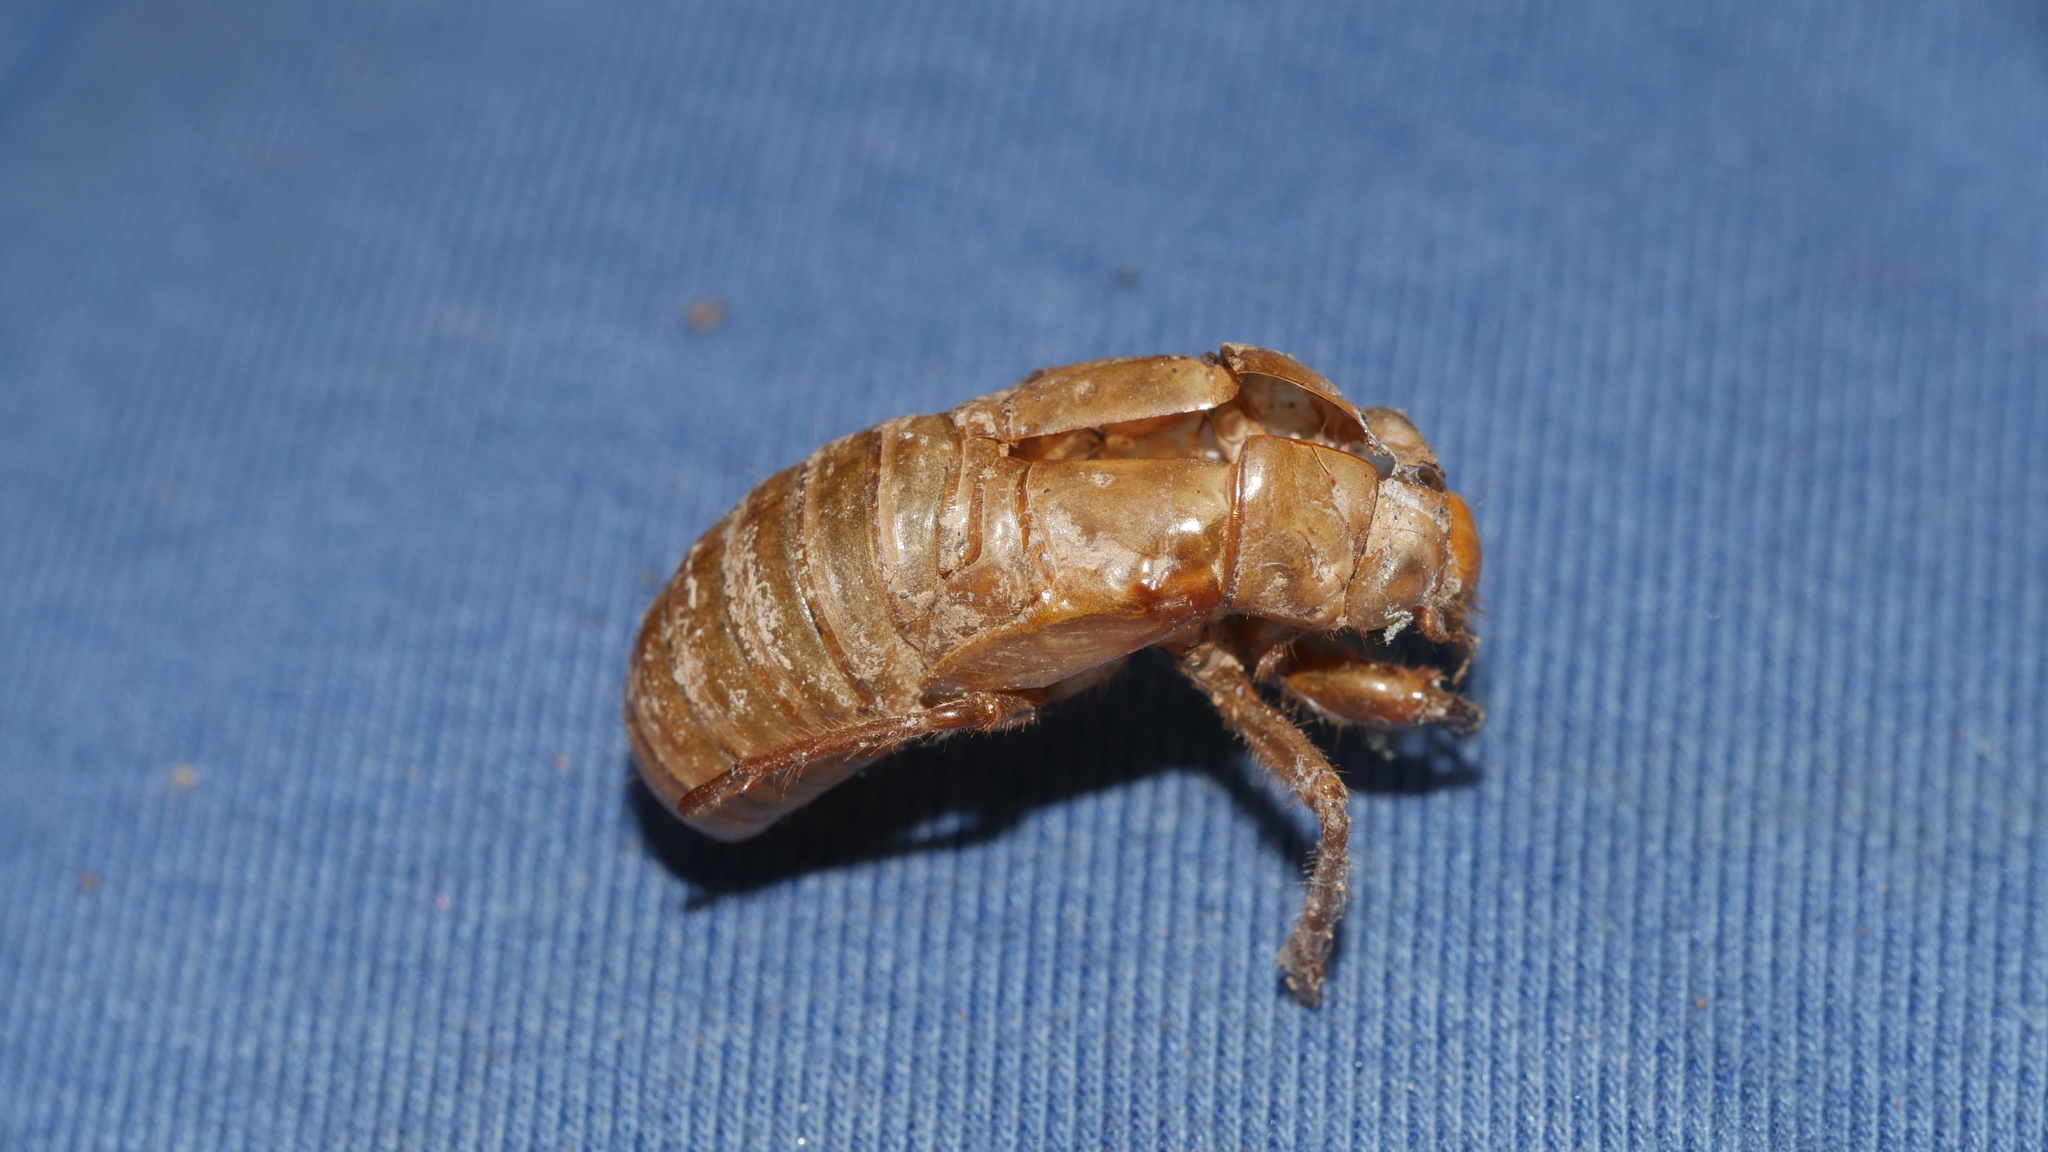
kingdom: Animalia
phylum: Arthropoda
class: Insecta
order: Hemiptera
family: Cicadidae
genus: Magicicada
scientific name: Magicicada
